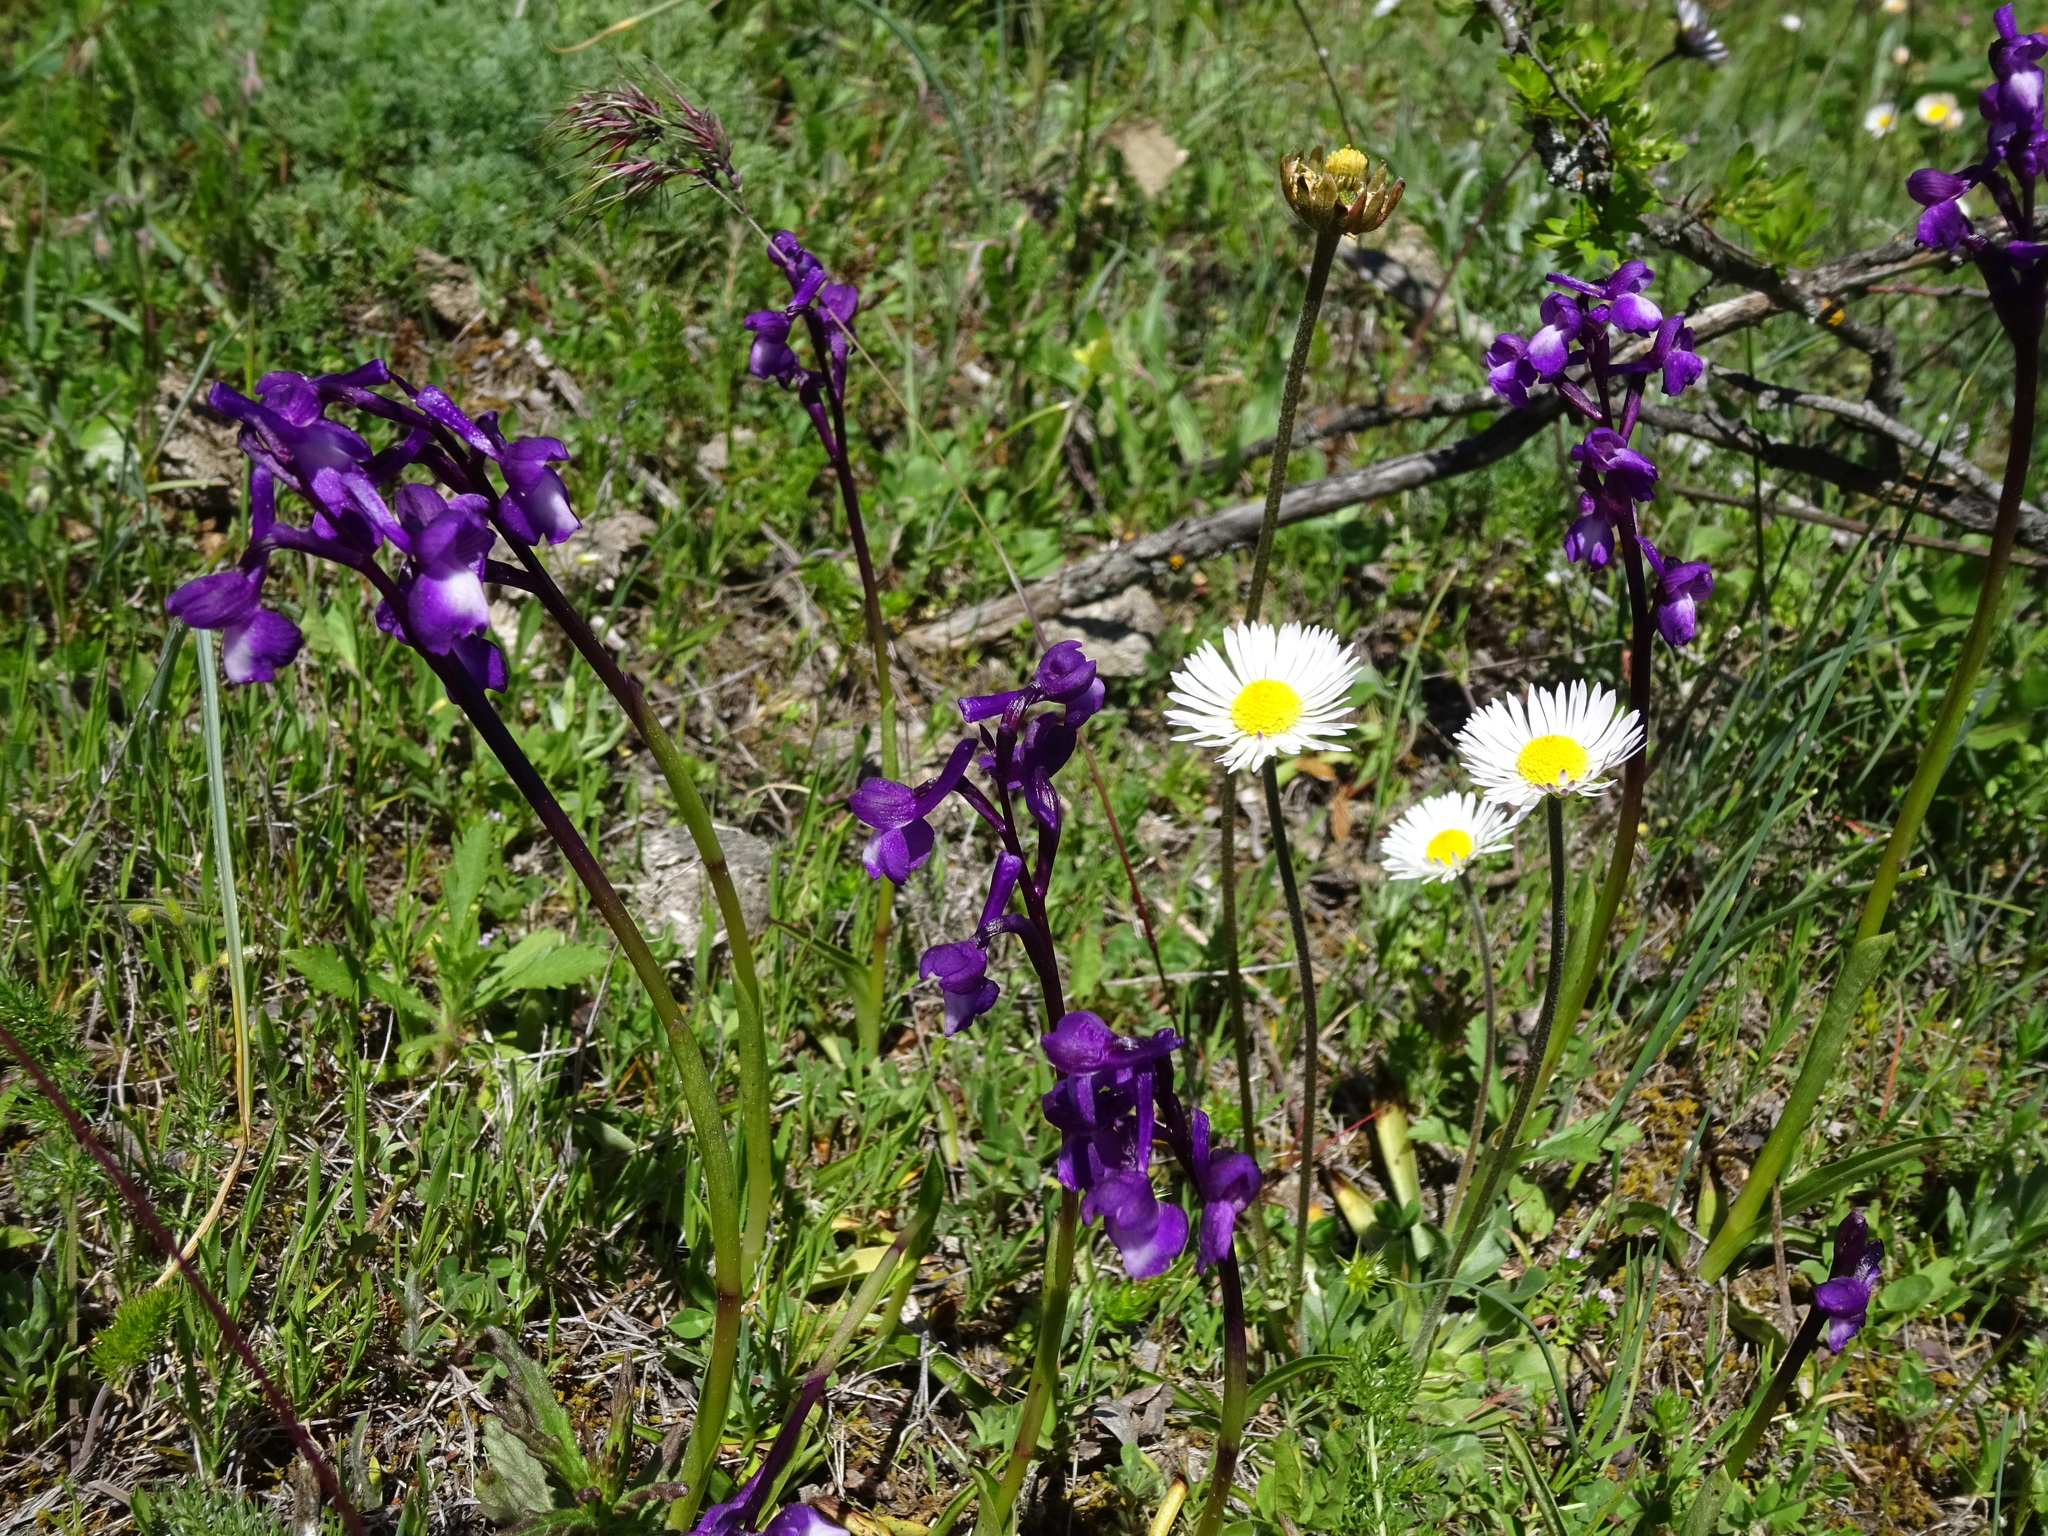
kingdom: Plantae
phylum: Tracheophyta
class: Liliopsida
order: Asparagales
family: Orchidaceae
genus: Anacamptis
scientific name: Anacamptis morio
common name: Green-winged orchid
